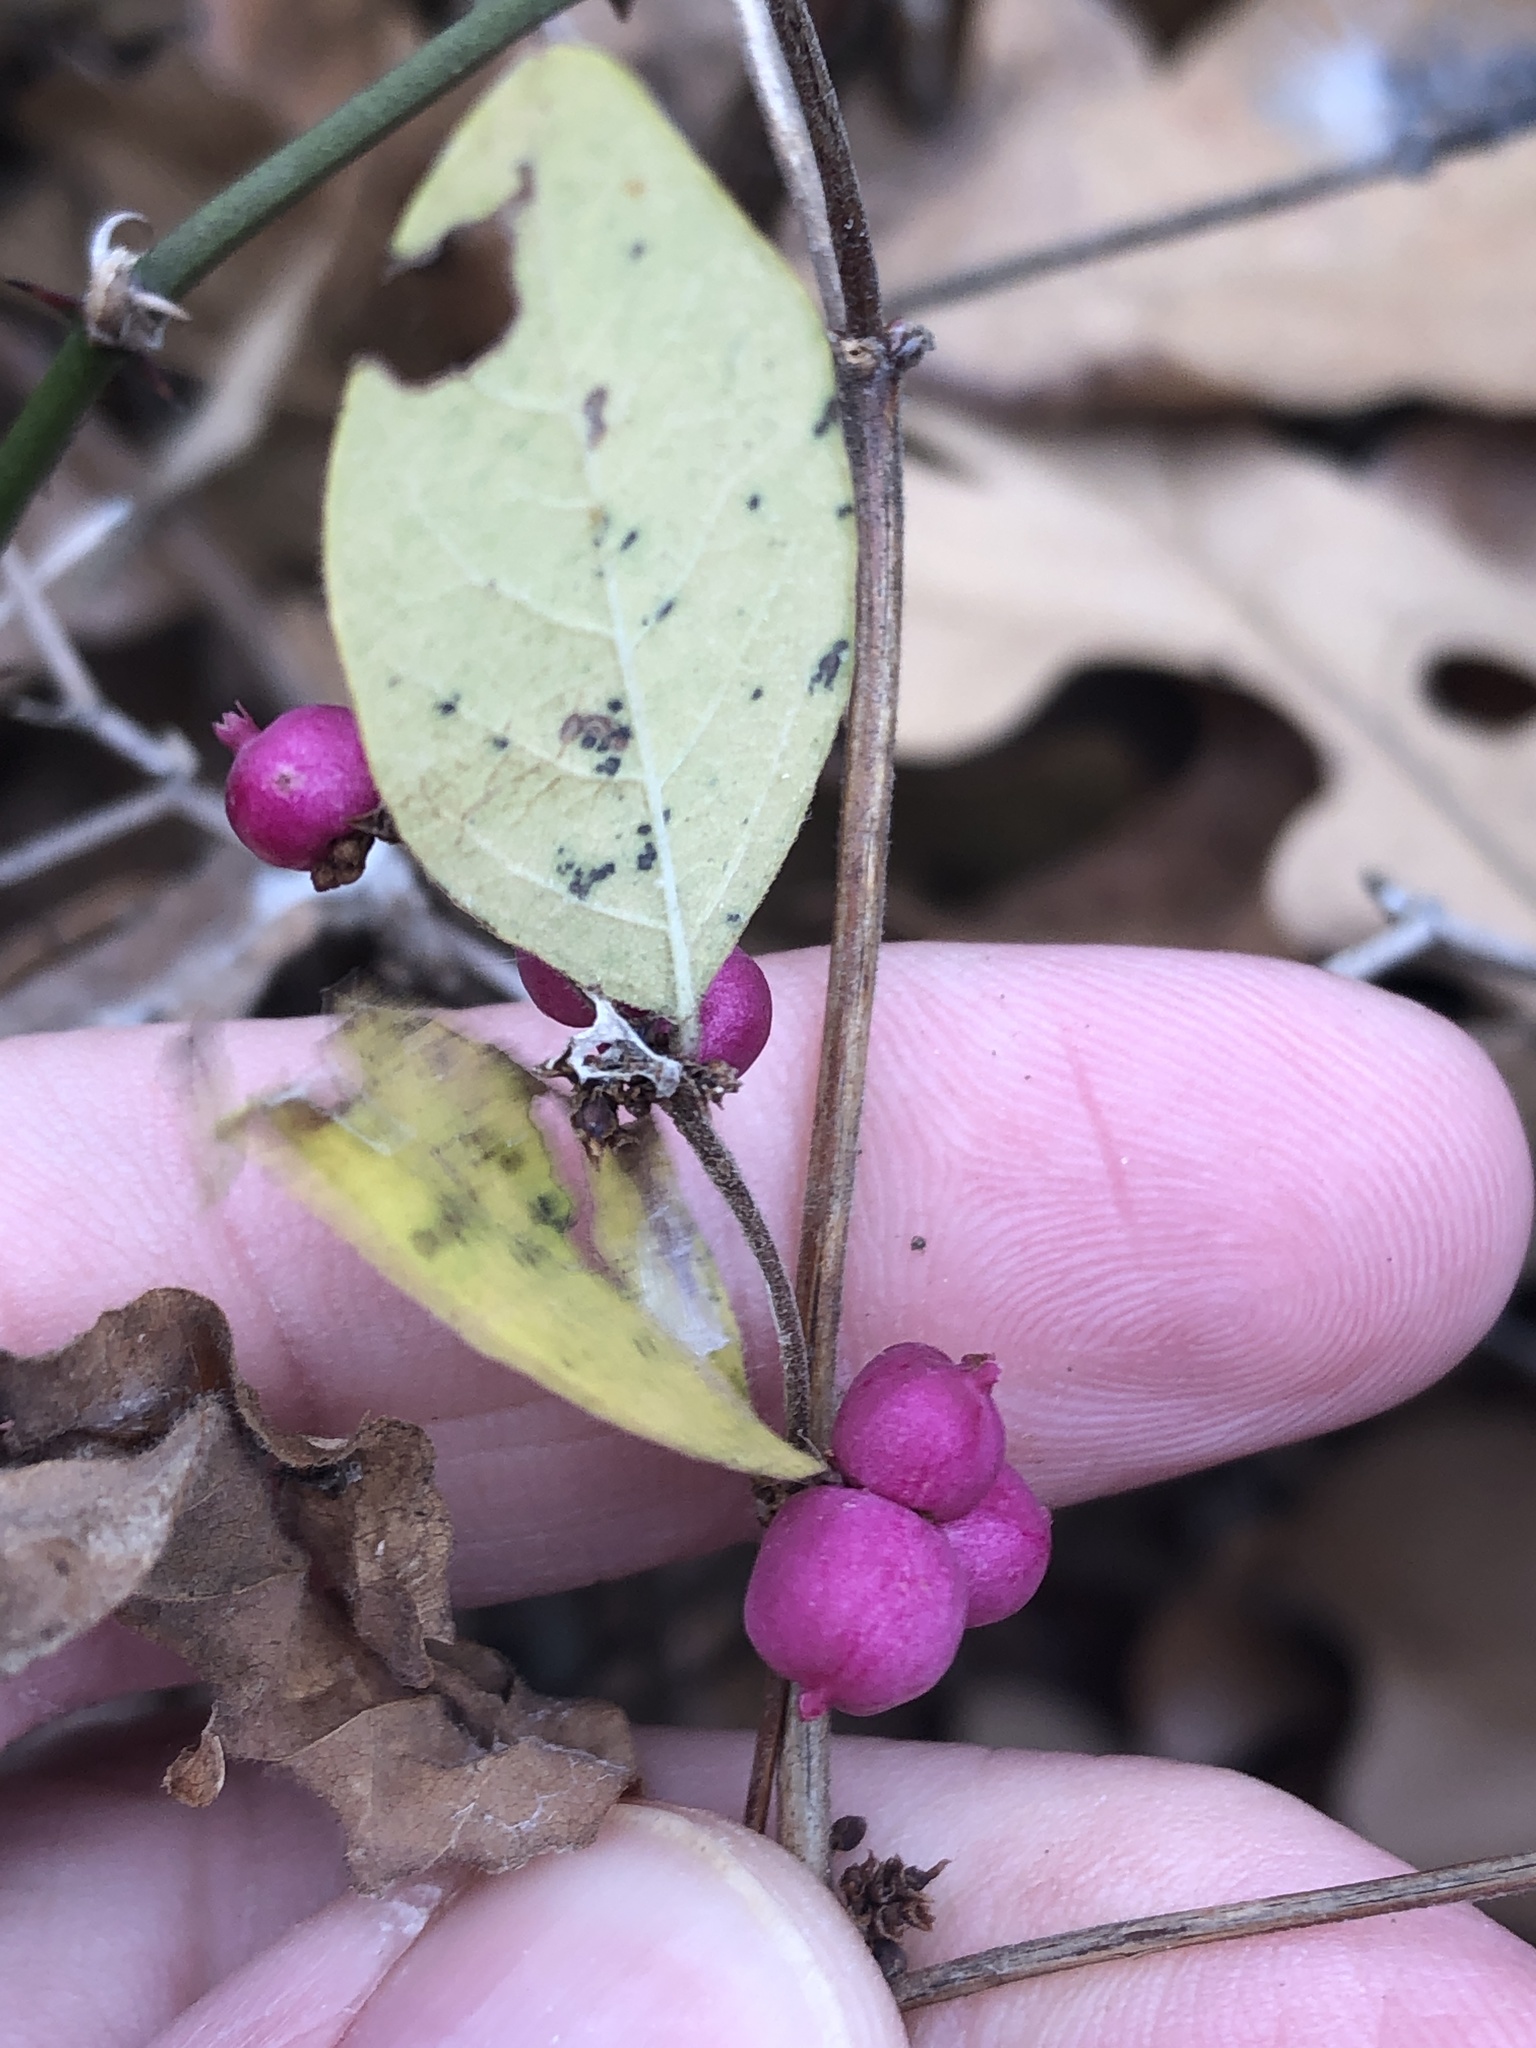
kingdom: Plantae
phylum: Tracheophyta
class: Magnoliopsida
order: Dipsacales
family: Caprifoliaceae
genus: Symphoricarpos
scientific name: Symphoricarpos orbiculatus
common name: Coralberry
